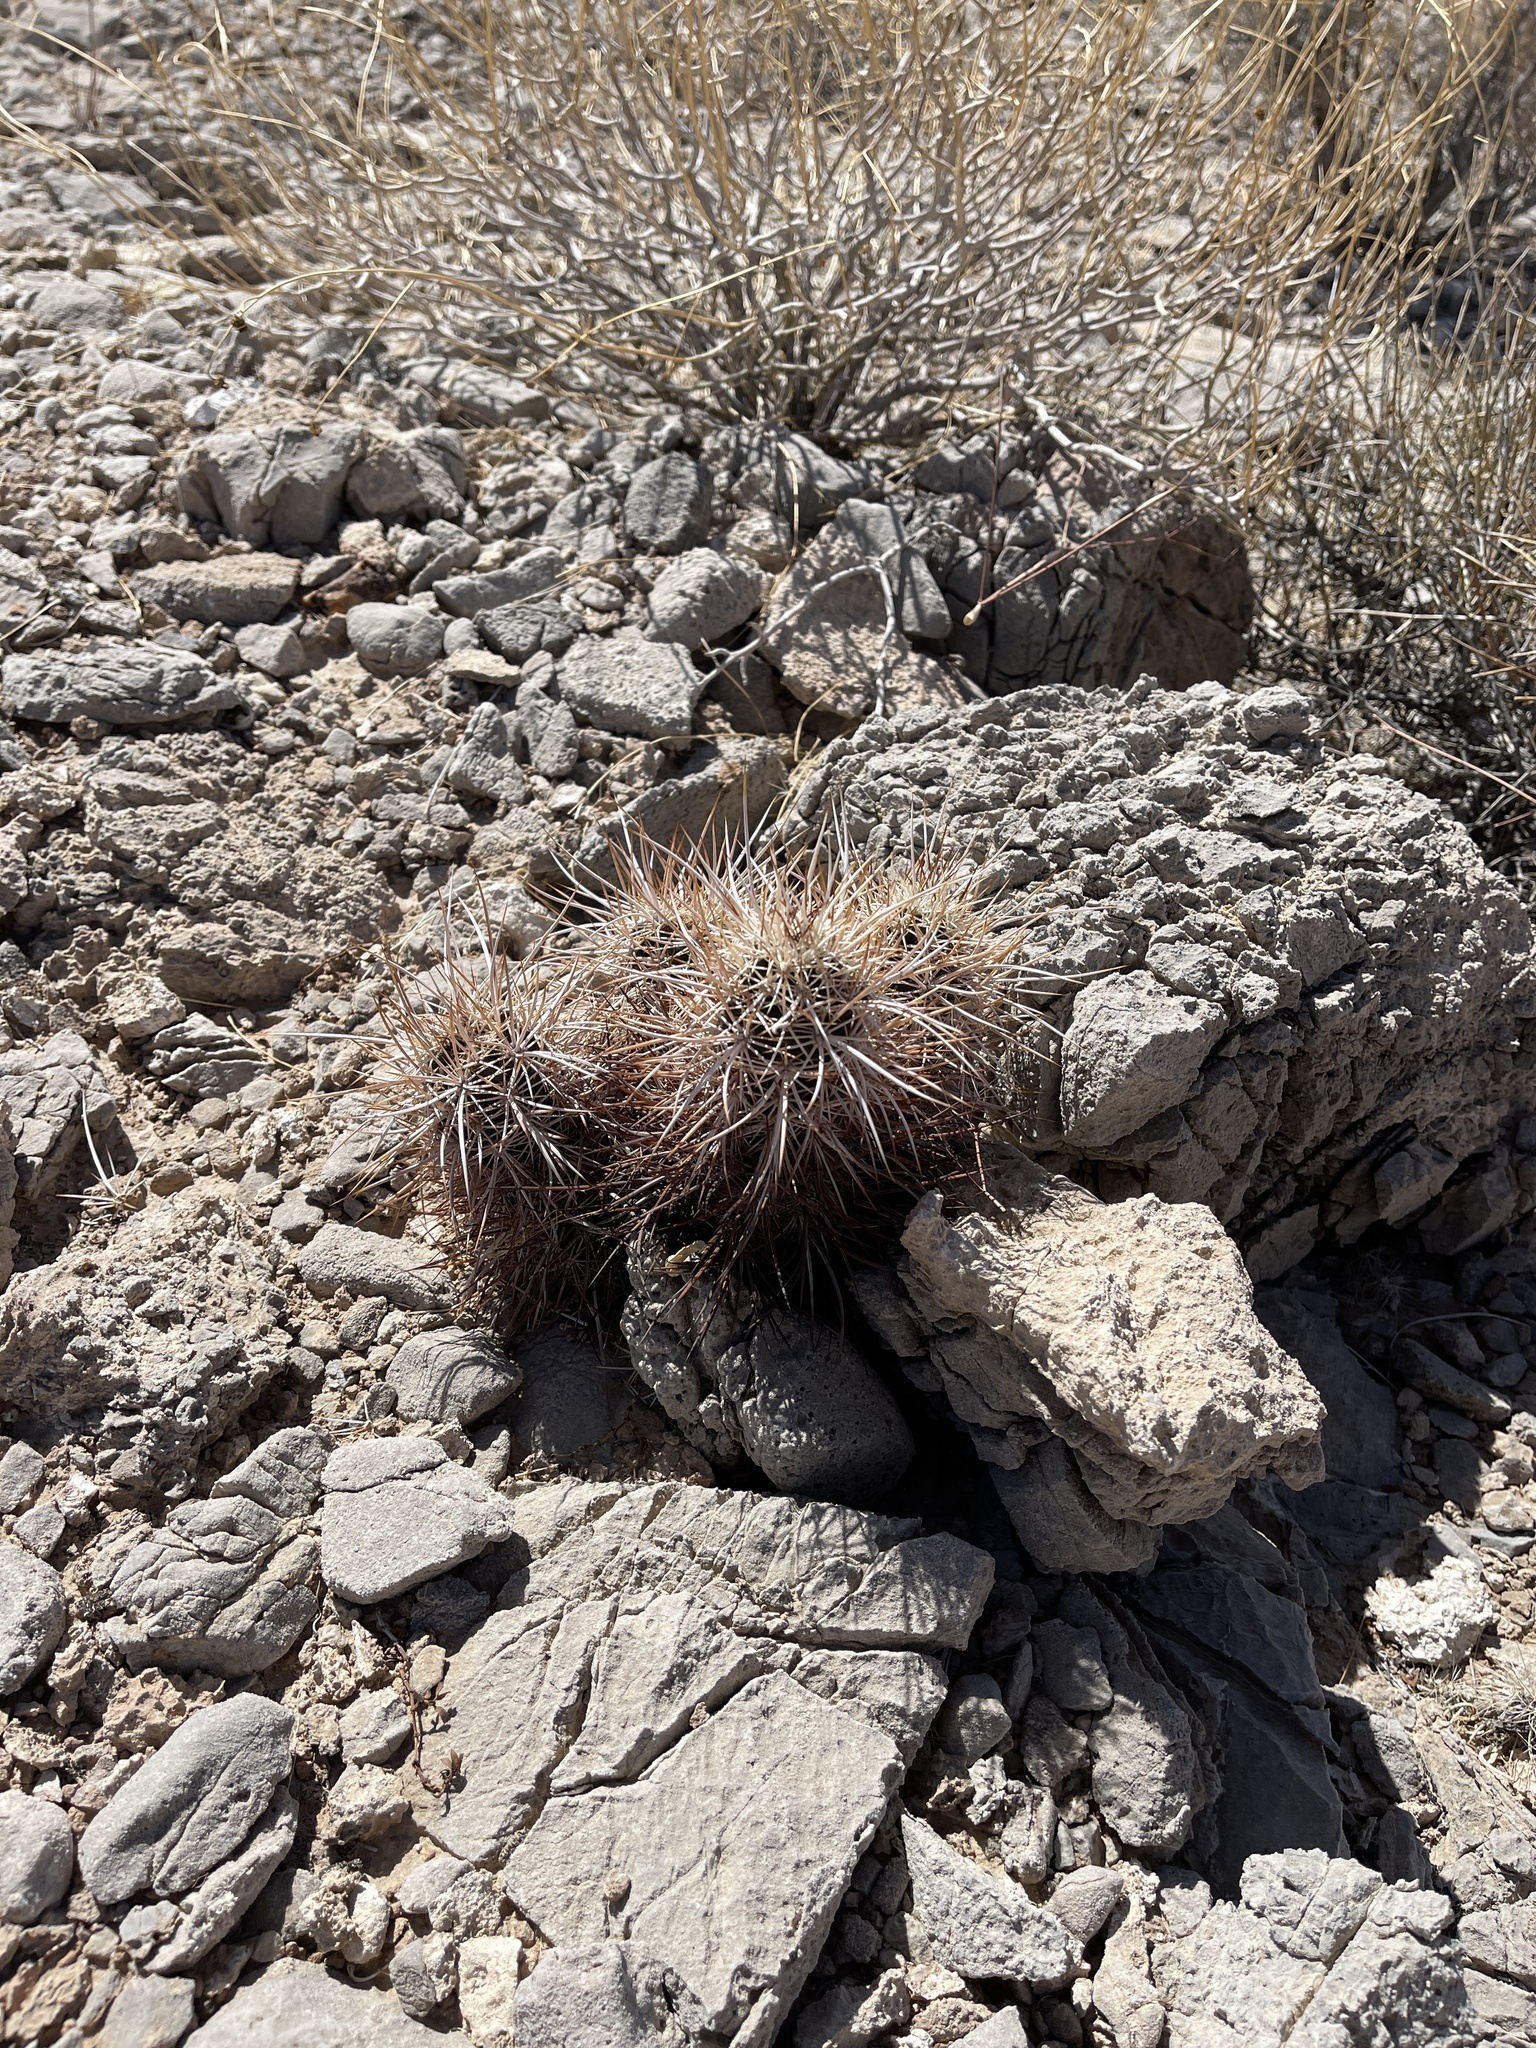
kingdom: Plantae
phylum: Tracheophyta
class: Magnoliopsida
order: Caryophyllales
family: Cactaceae
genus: Echinocereus
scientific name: Echinocereus engelmannii
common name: Engelmann's hedgehog cactus
